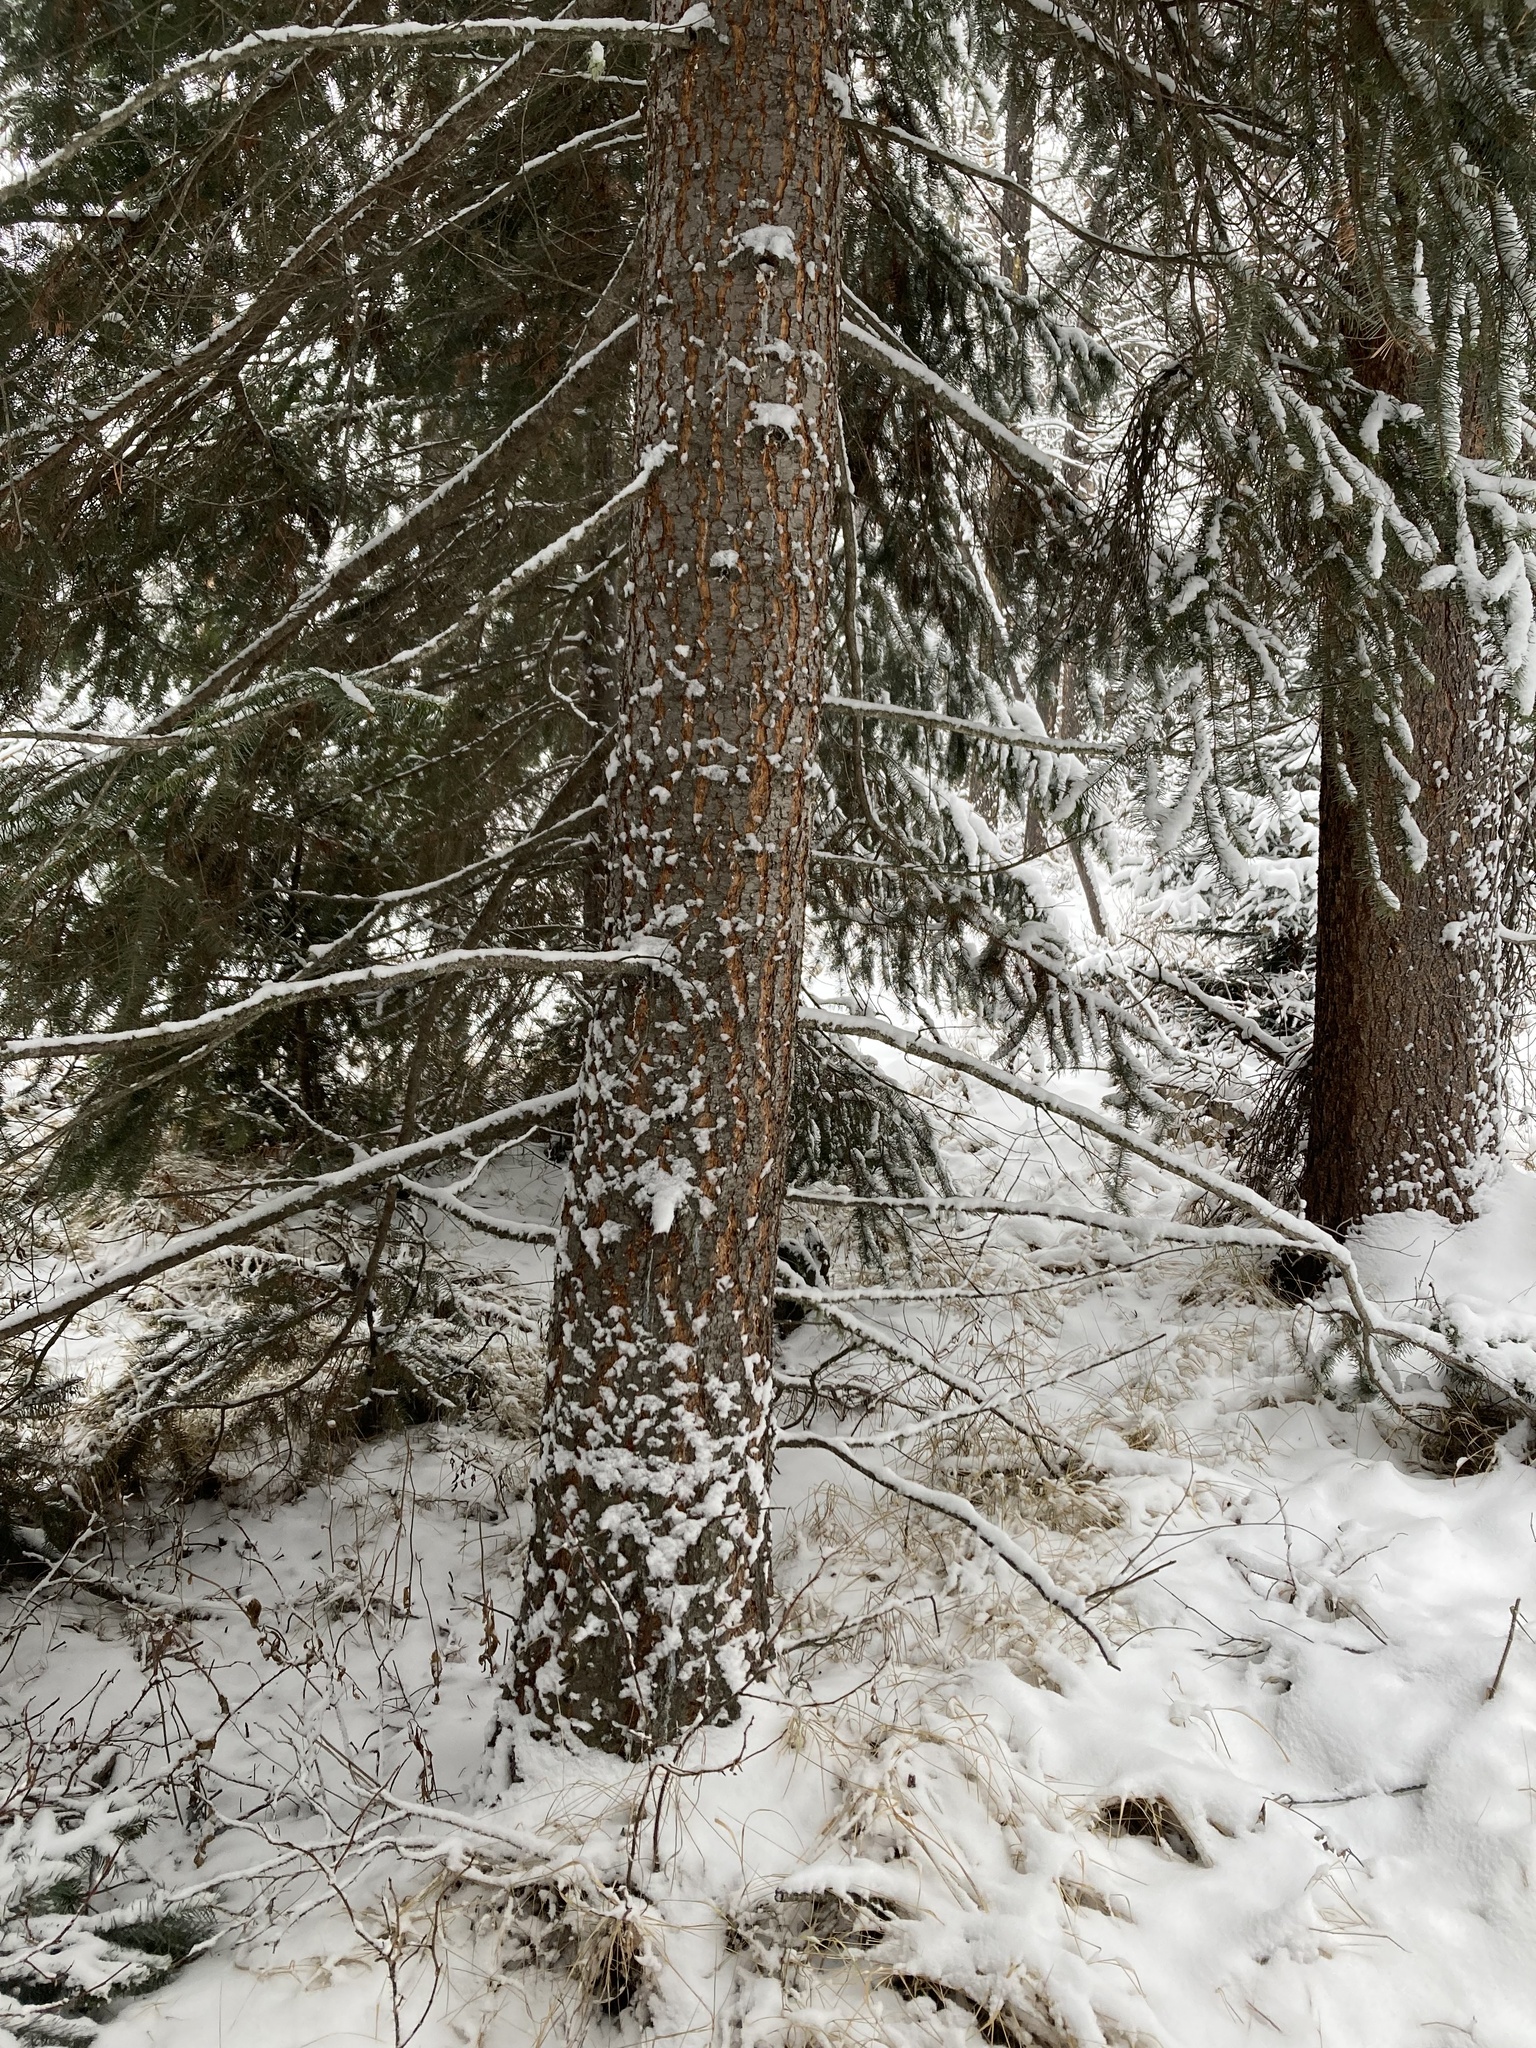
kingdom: Plantae
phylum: Tracheophyta
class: Pinopsida
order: Pinales
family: Pinaceae
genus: Pseudotsuga
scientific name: Pseudotsuga menziesii
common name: Douglas fir
